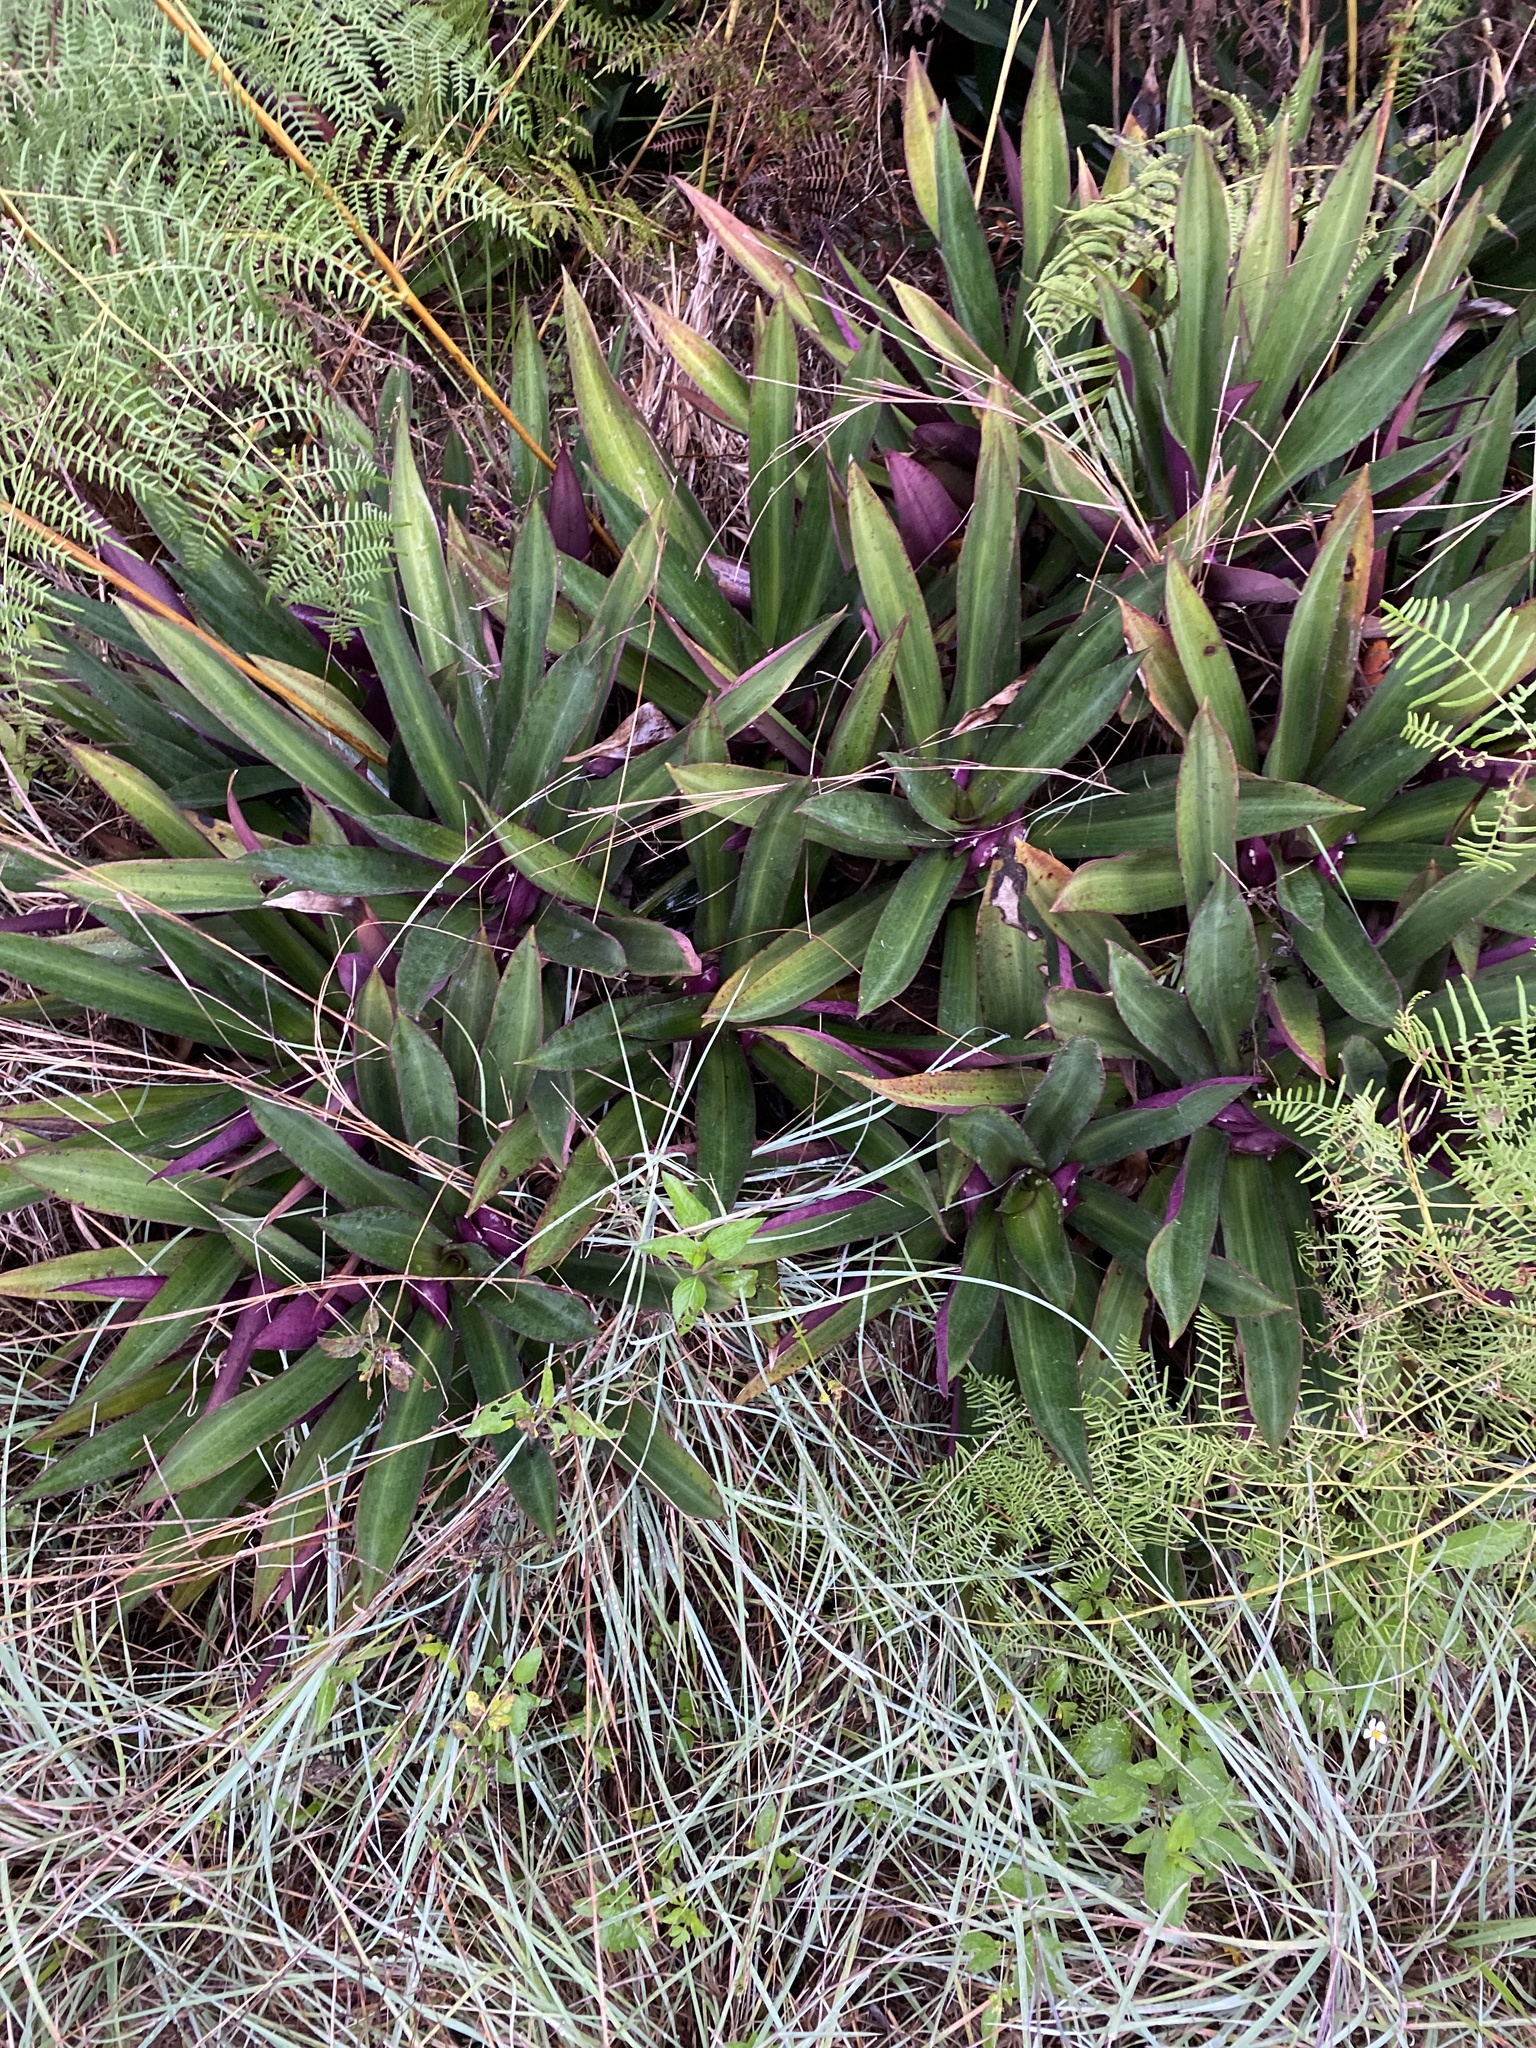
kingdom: Plantae
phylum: Tracheophyta
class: Liliopsida
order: Commelinales
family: Commelinaceae
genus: Tradescantia
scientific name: Tradescantia spathacea
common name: Boatlily
